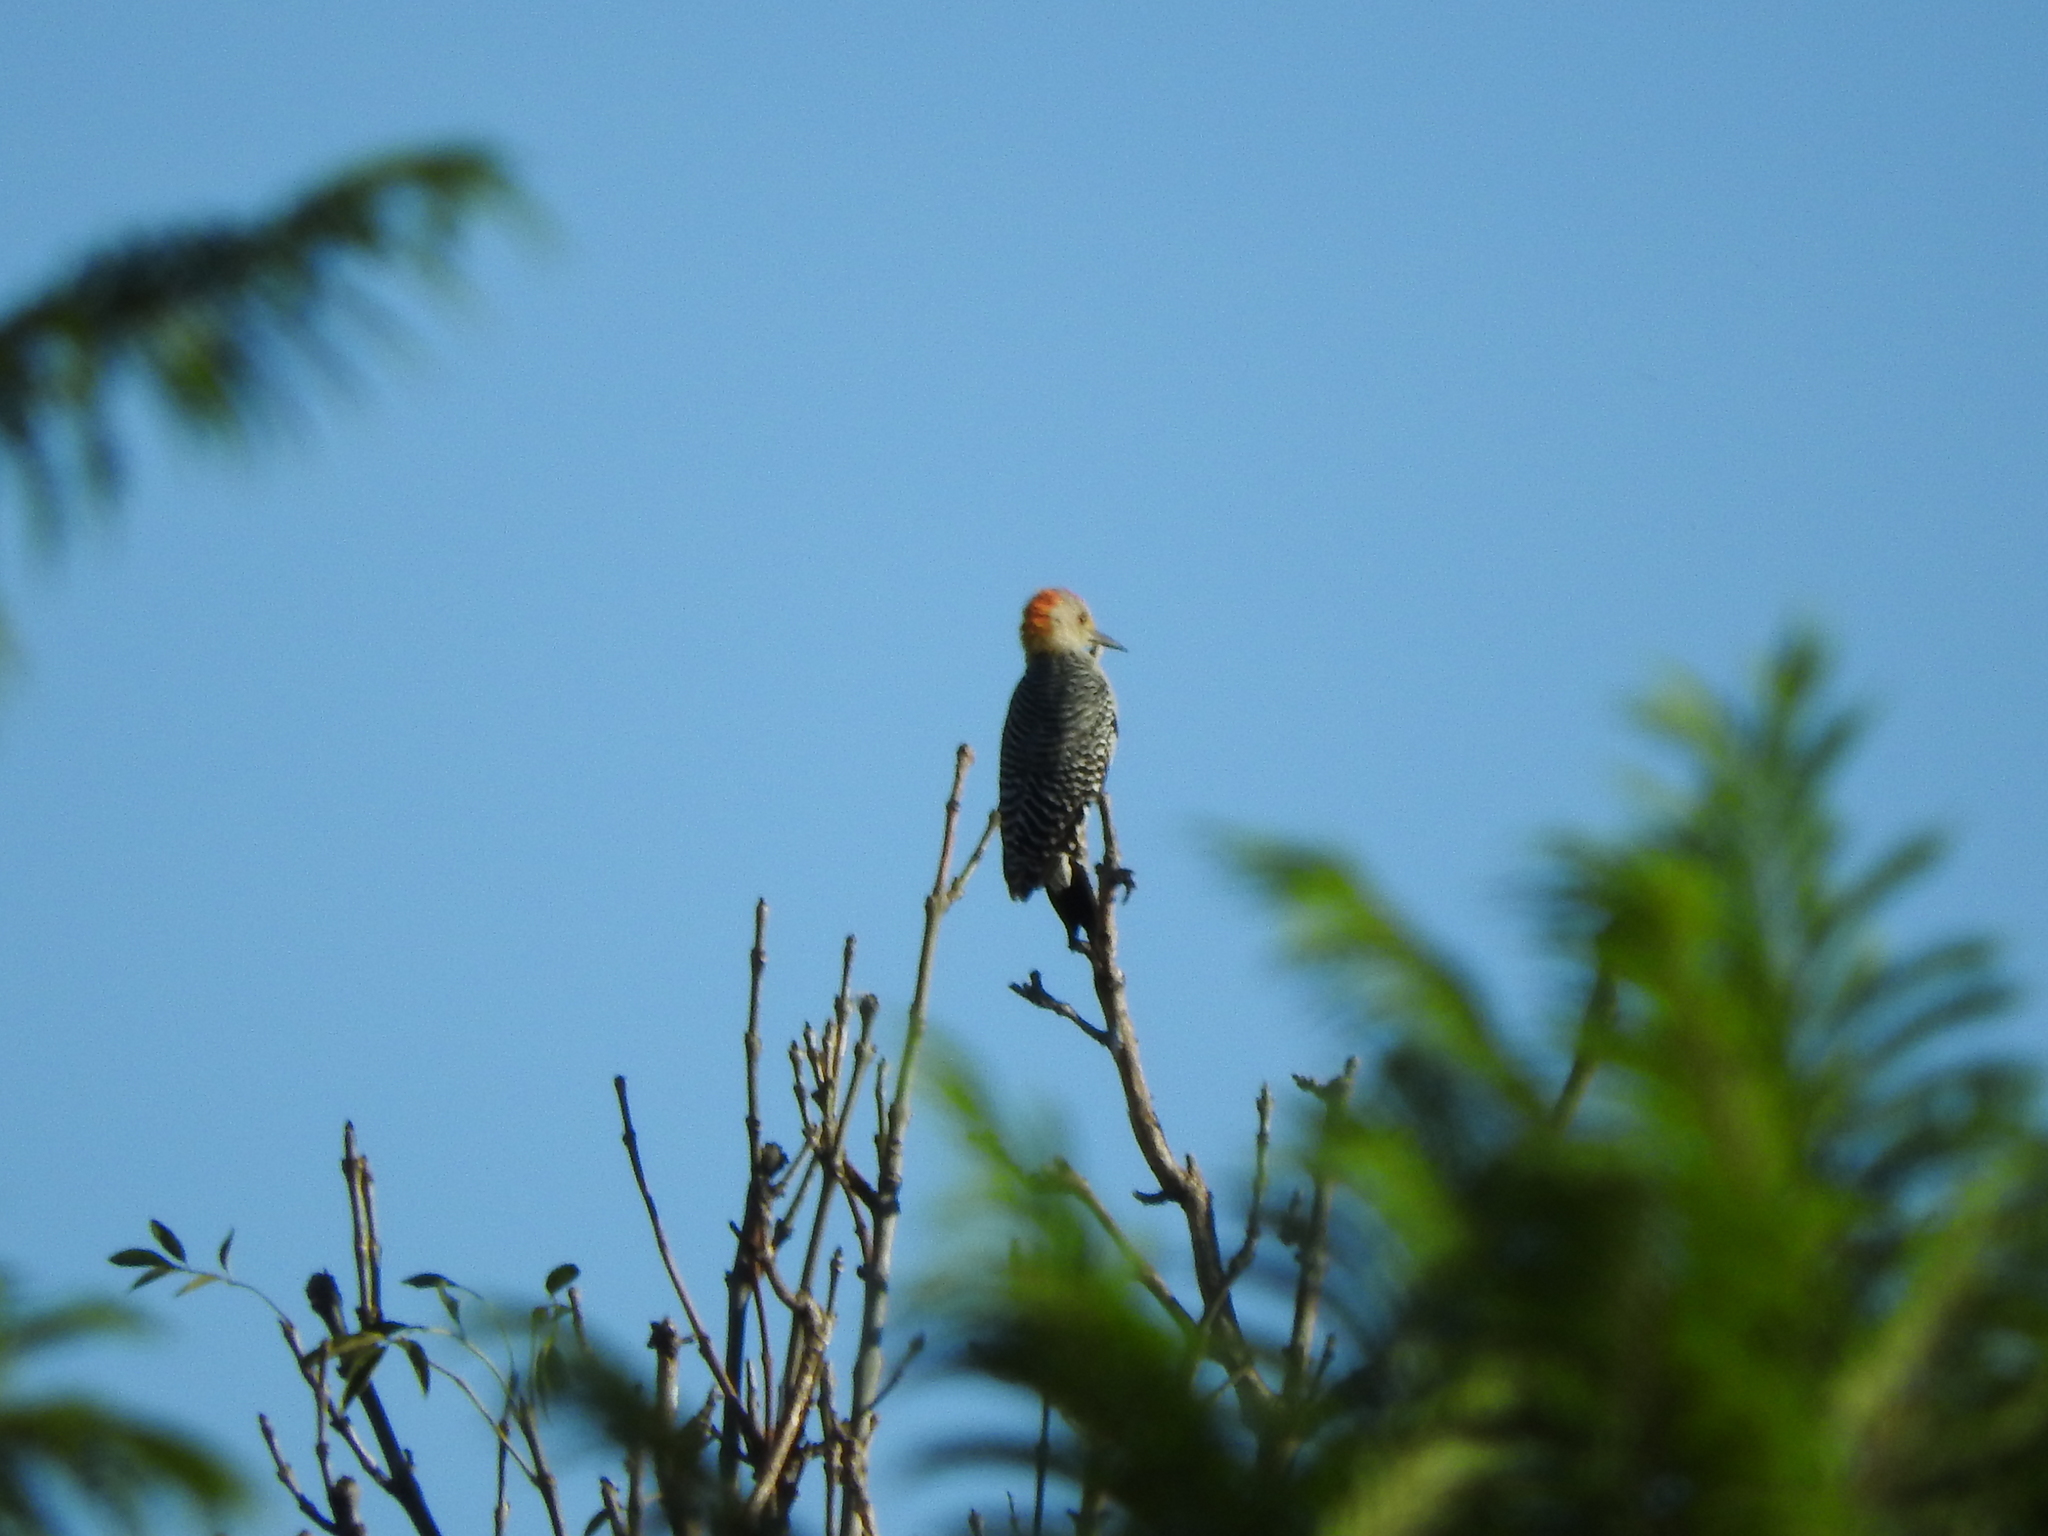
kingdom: Animalia
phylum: Chordata
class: Aves
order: Piciformes
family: Picidae
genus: Melanerpes
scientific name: Melanerpes aurifrons
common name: Golden-fronted woodpecker
